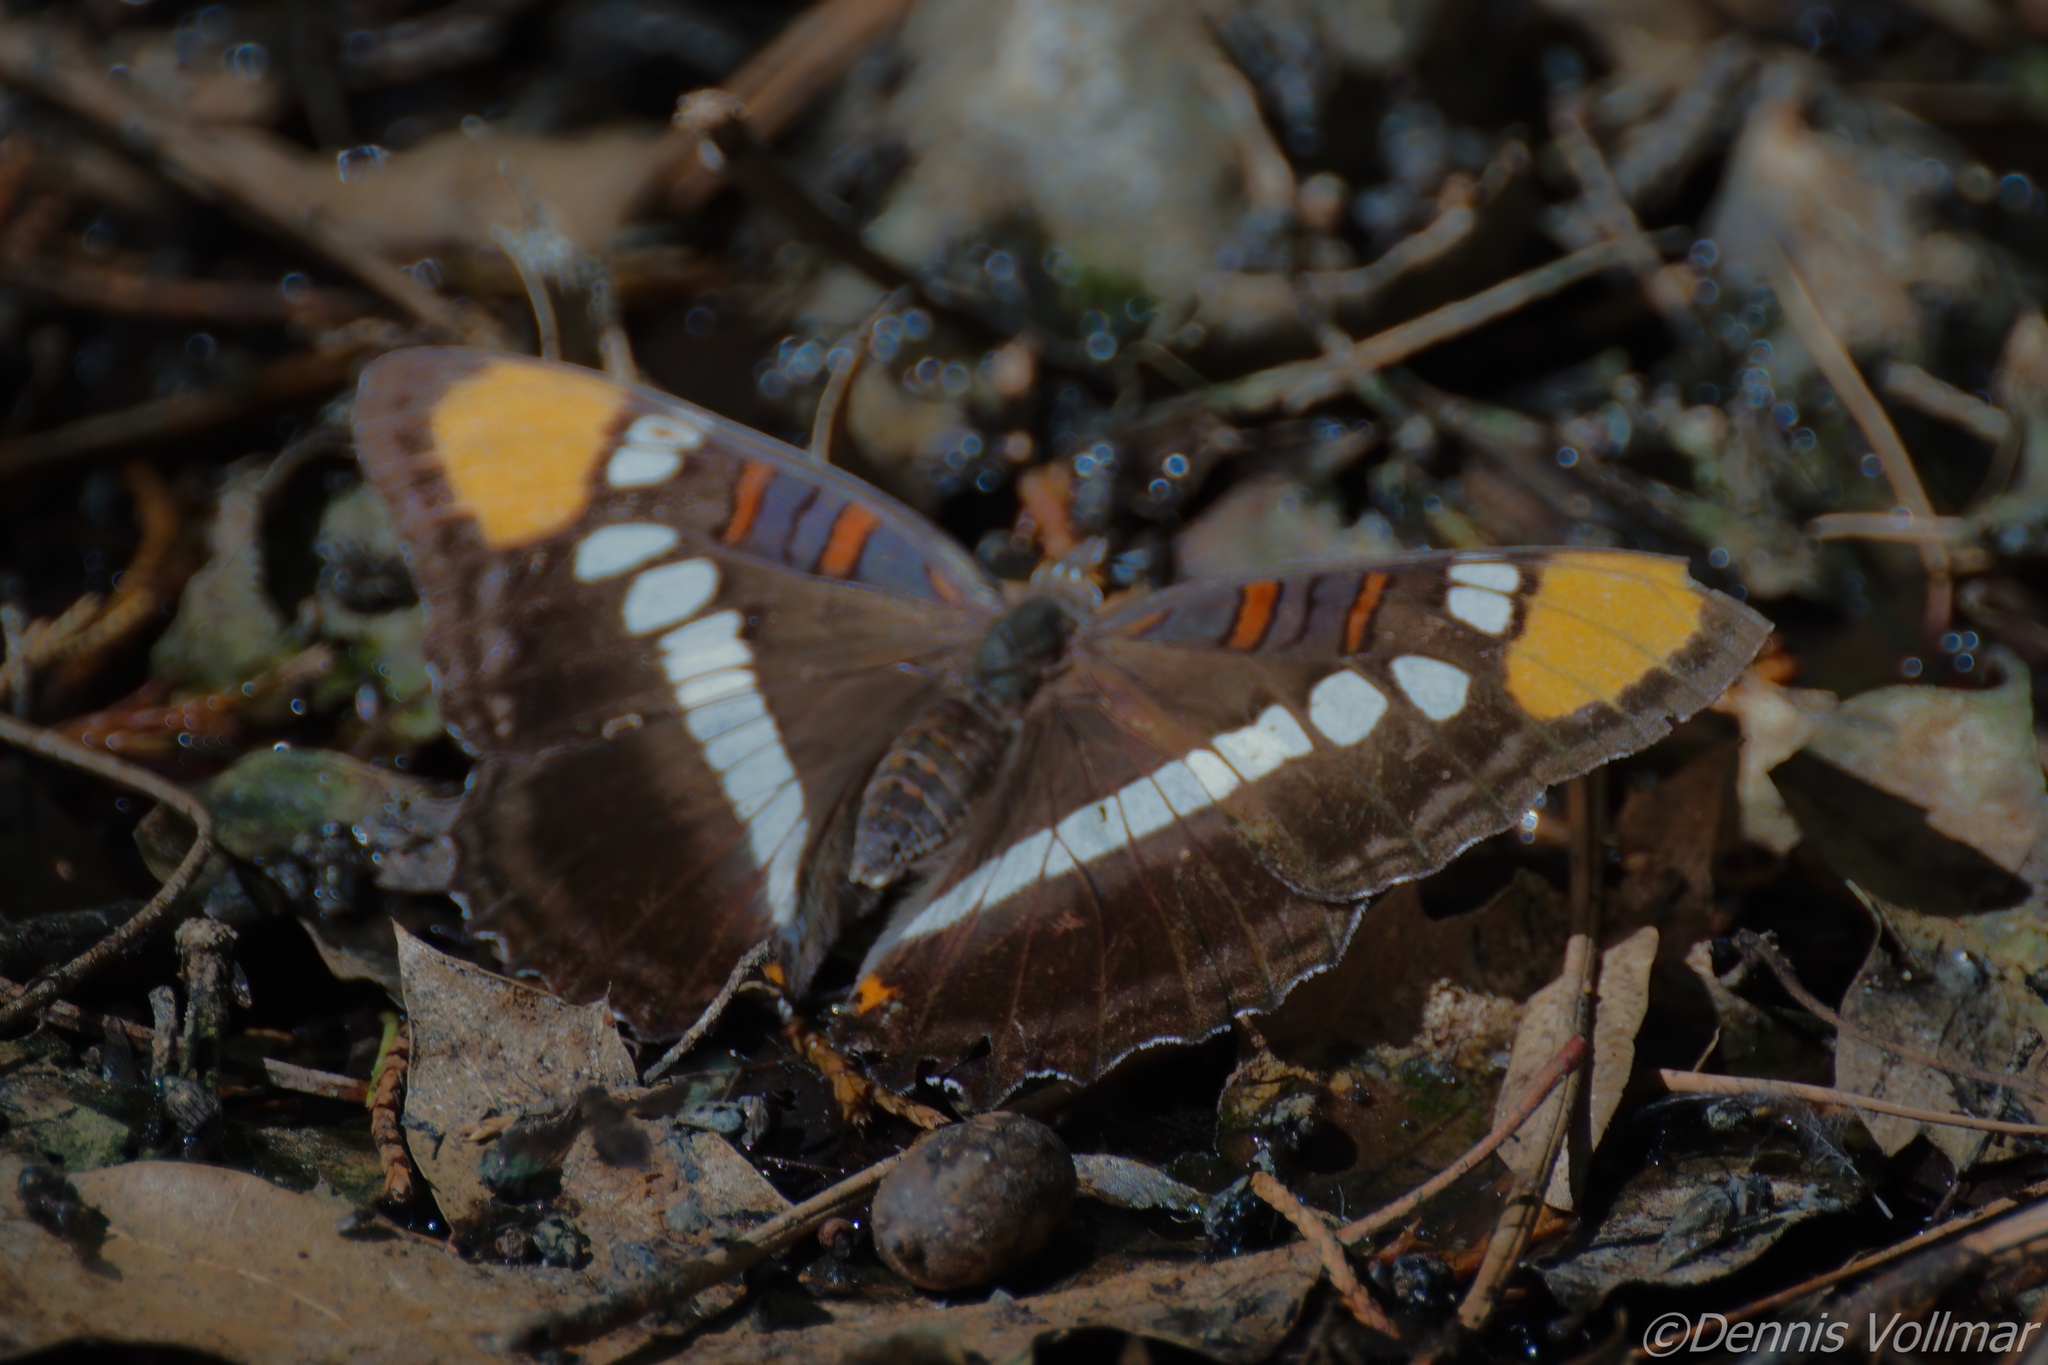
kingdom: Animalia
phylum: Arthropoda
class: Insecta
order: Lepidoptera
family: Nymphalidae
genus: Limenitis
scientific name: Limenitis bredowii
